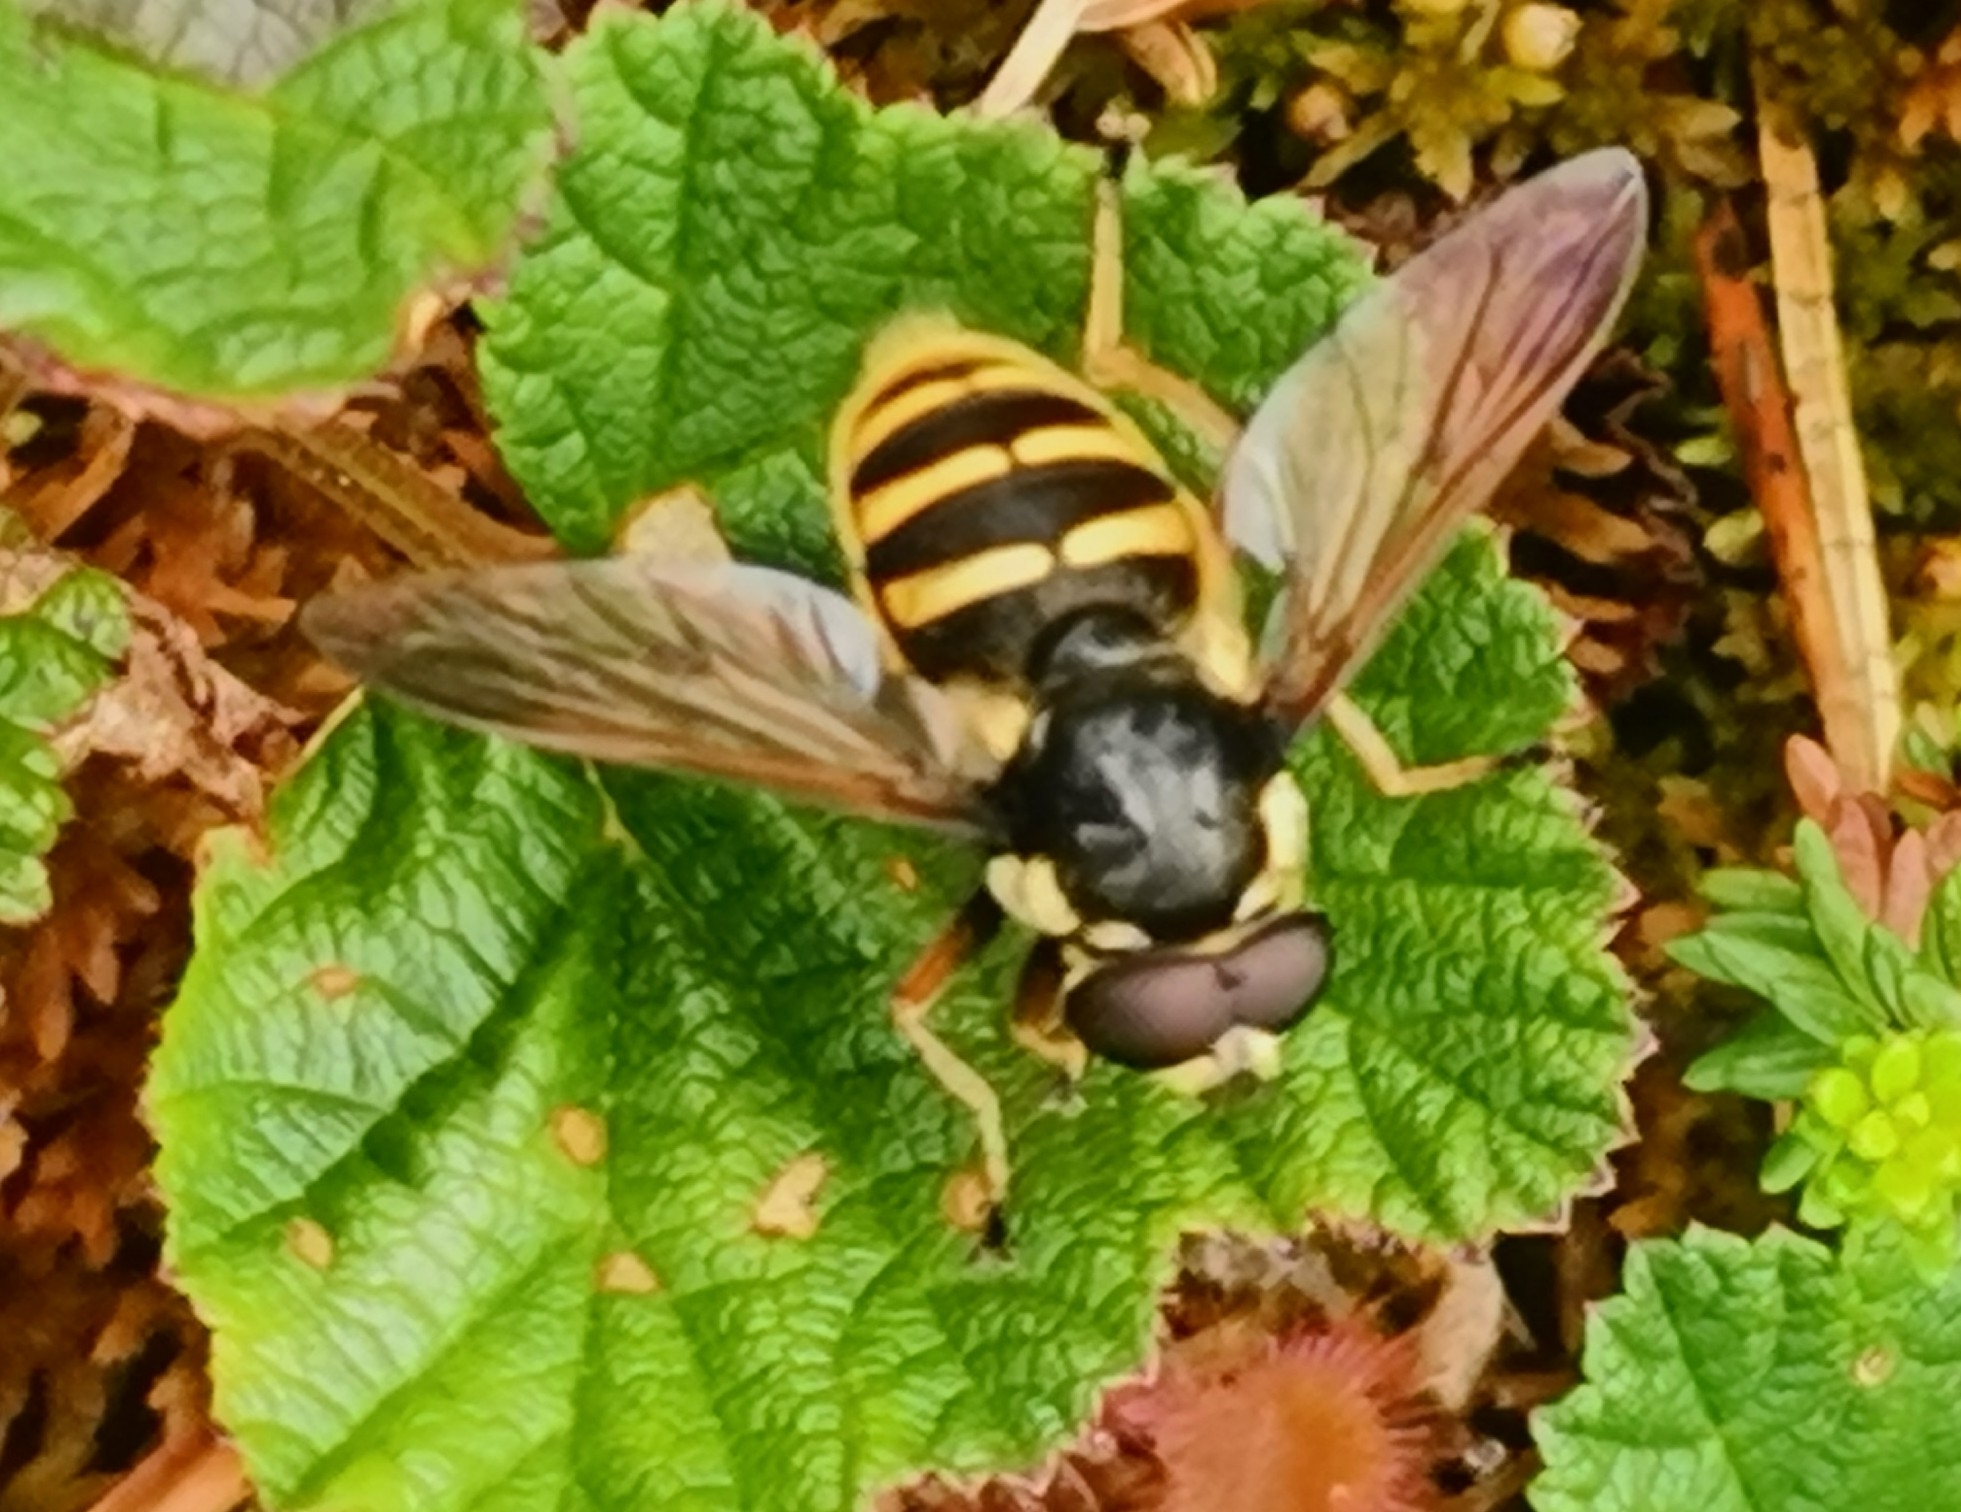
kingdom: Animalia
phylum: Arthropoda
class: Insecta
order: Diptera
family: Syrphidae
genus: Sericomyia
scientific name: Sericomyia silentis
